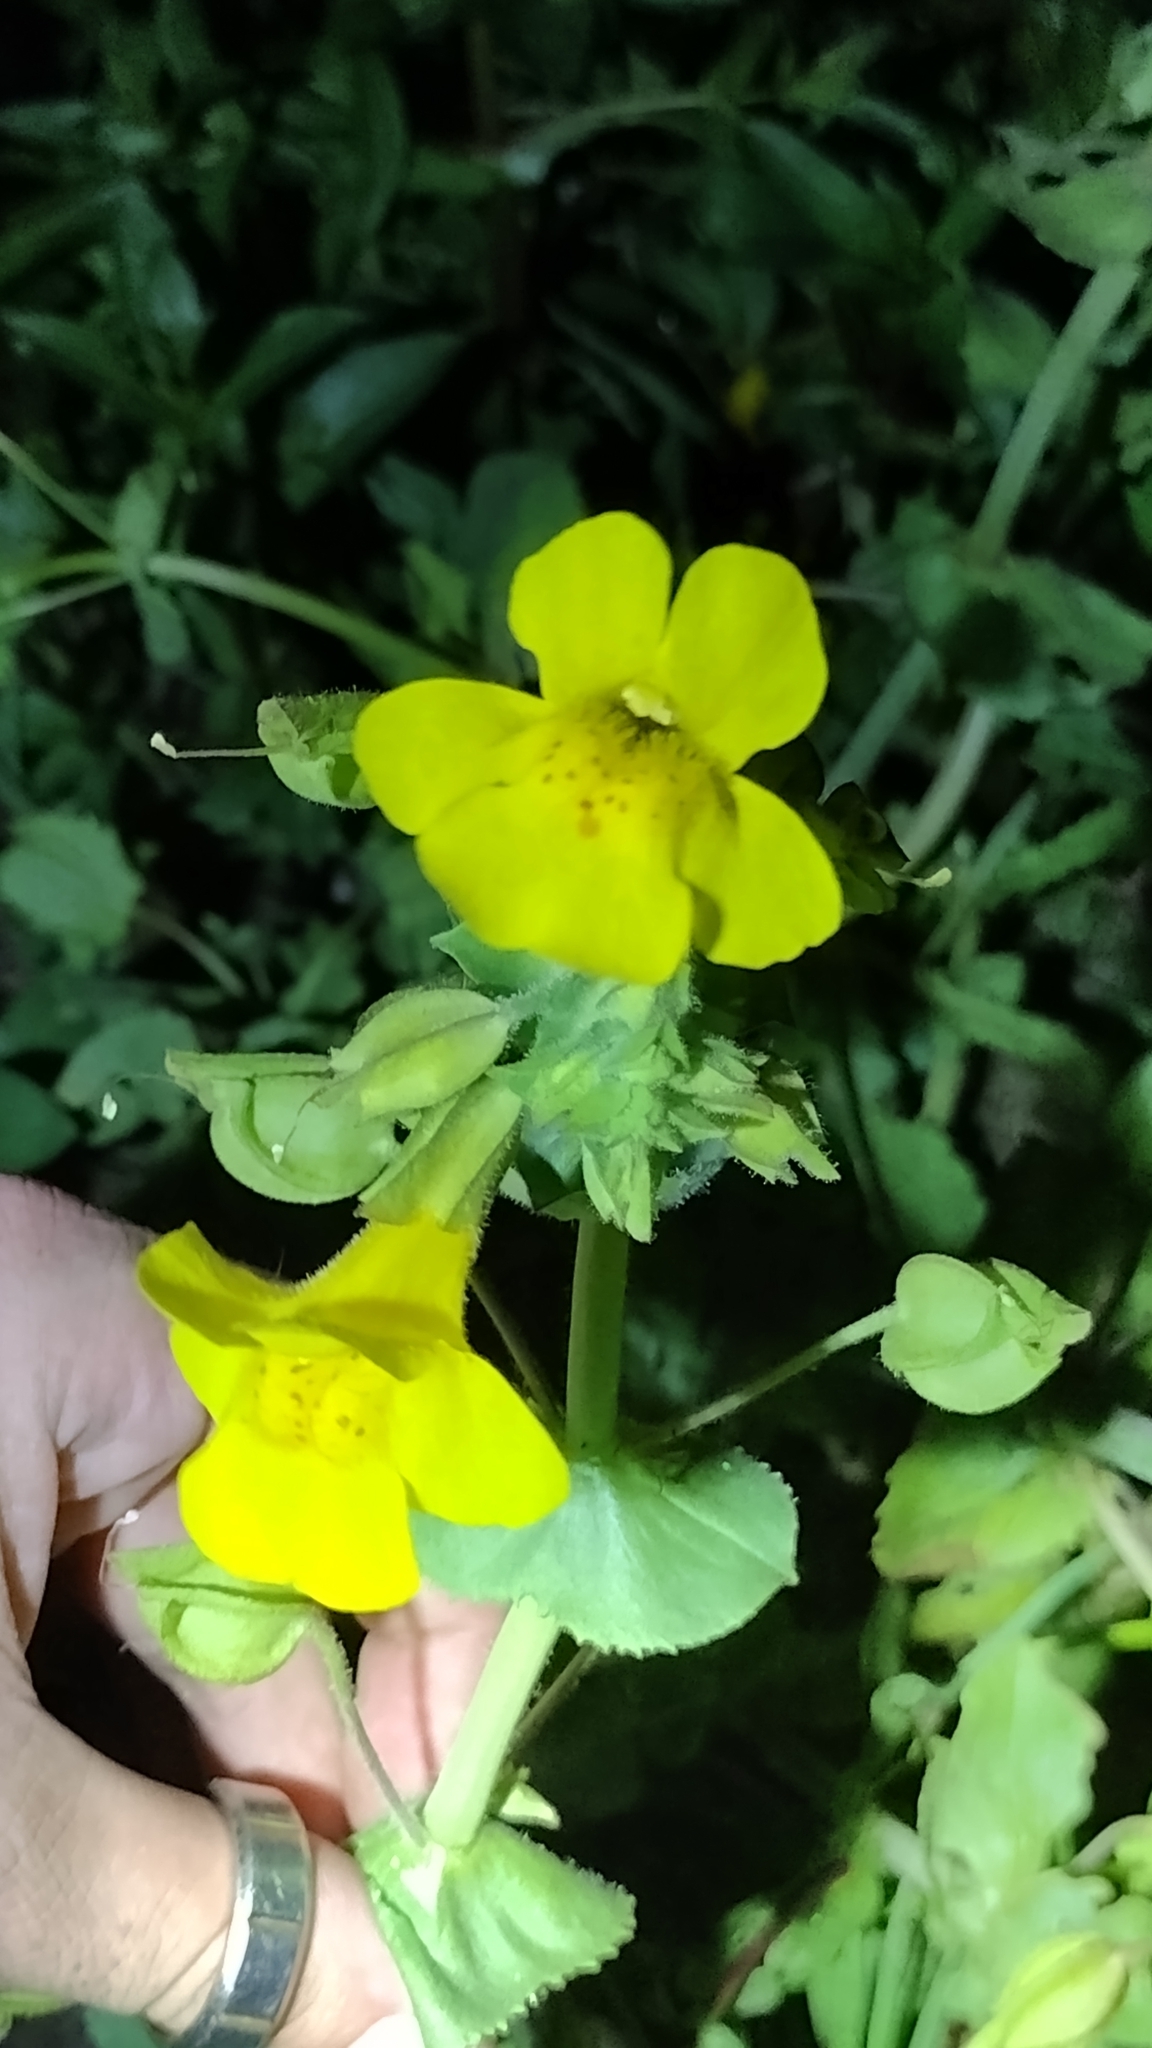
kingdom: Plantae
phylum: Tracheophyta
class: Magnoliopsida
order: Lamiales
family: Phrymaceae
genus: Erythranthe
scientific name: Erythranthe guttata
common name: Monkeyflower
